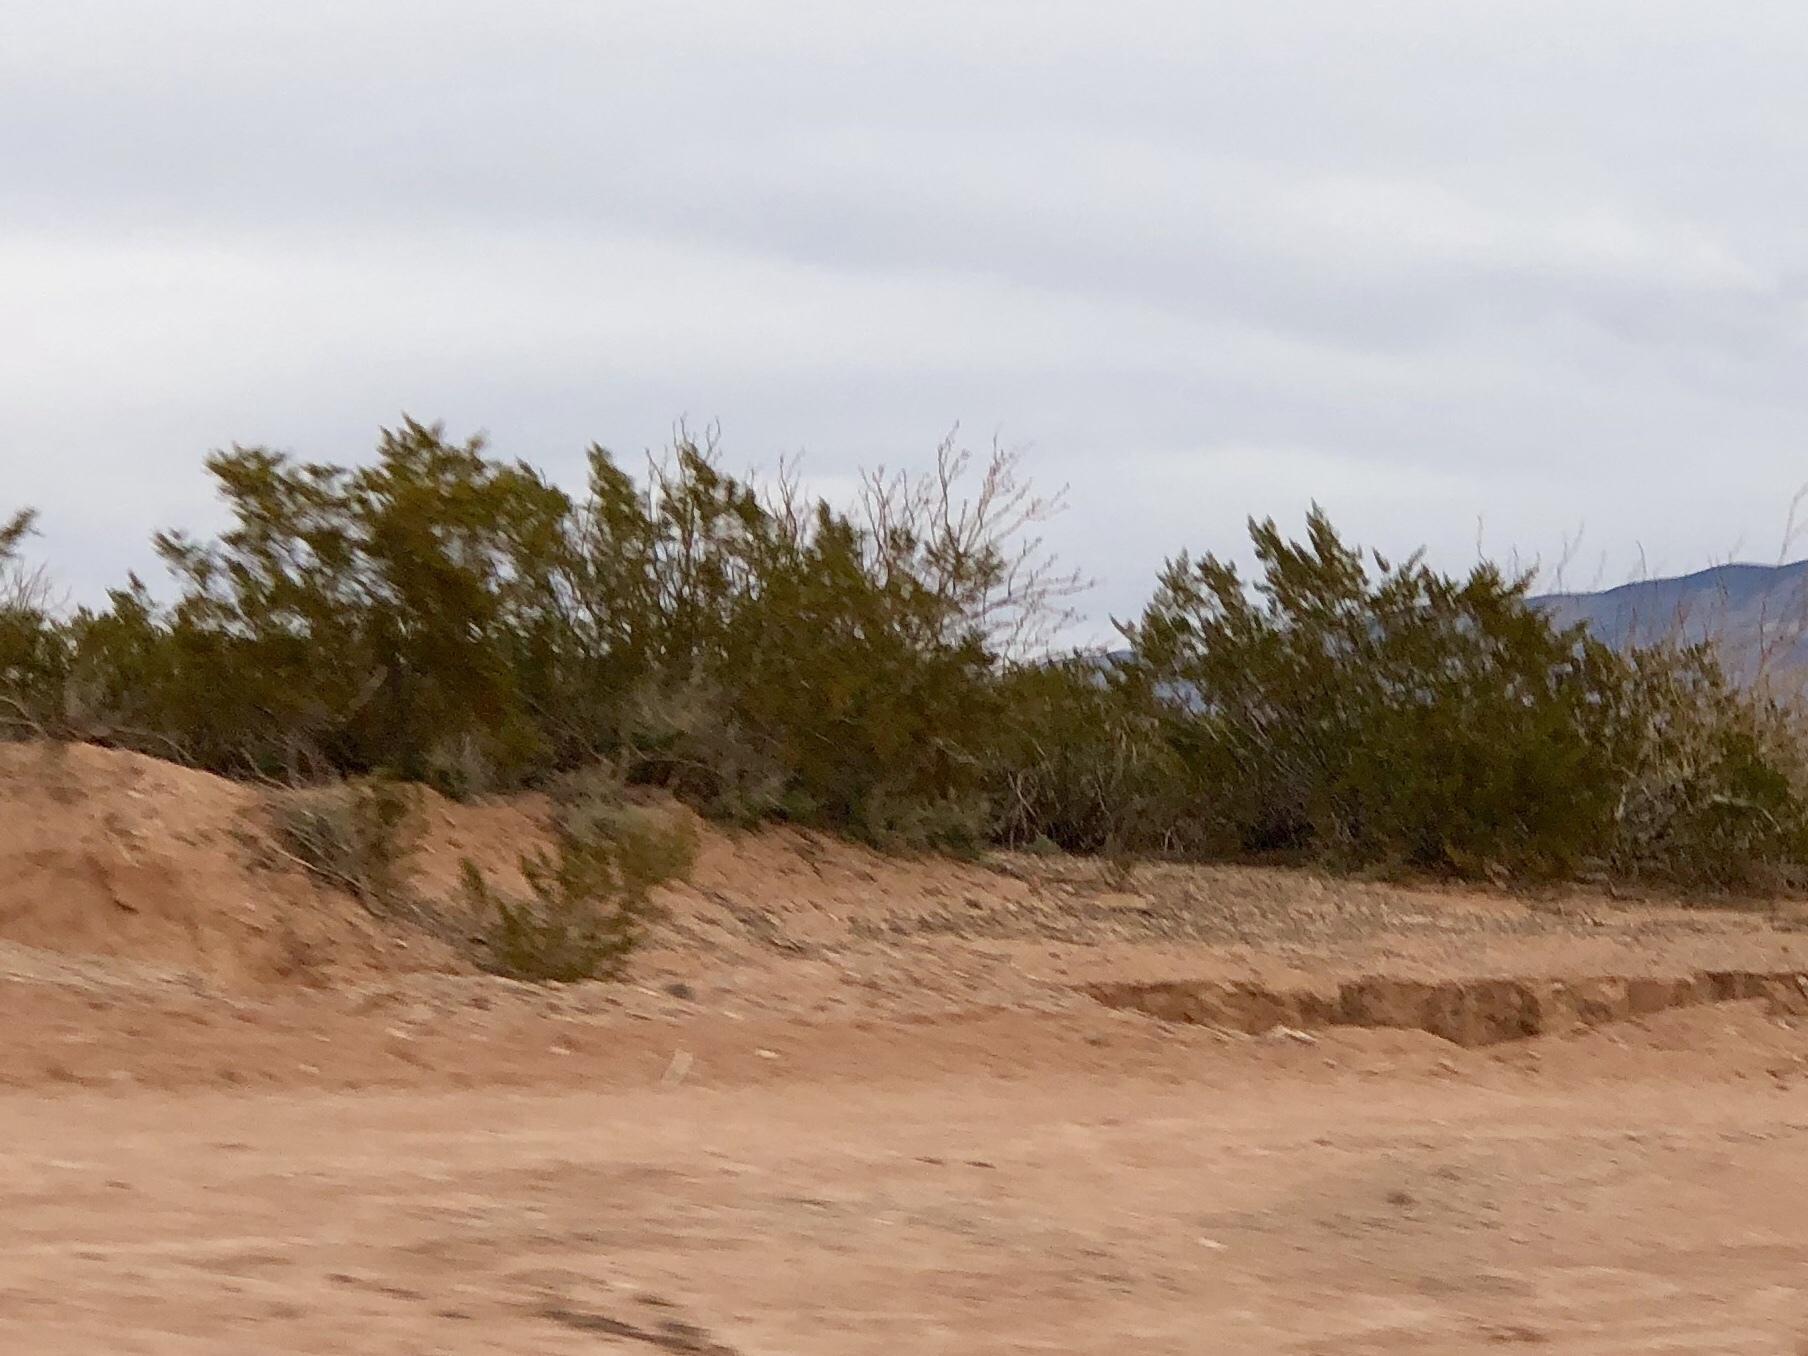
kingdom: Plantae
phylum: Tracheophyta
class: Magnoliopsida
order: Zygophyllales
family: Zygophyllaceae
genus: Larrea
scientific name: Larrea tridentata
